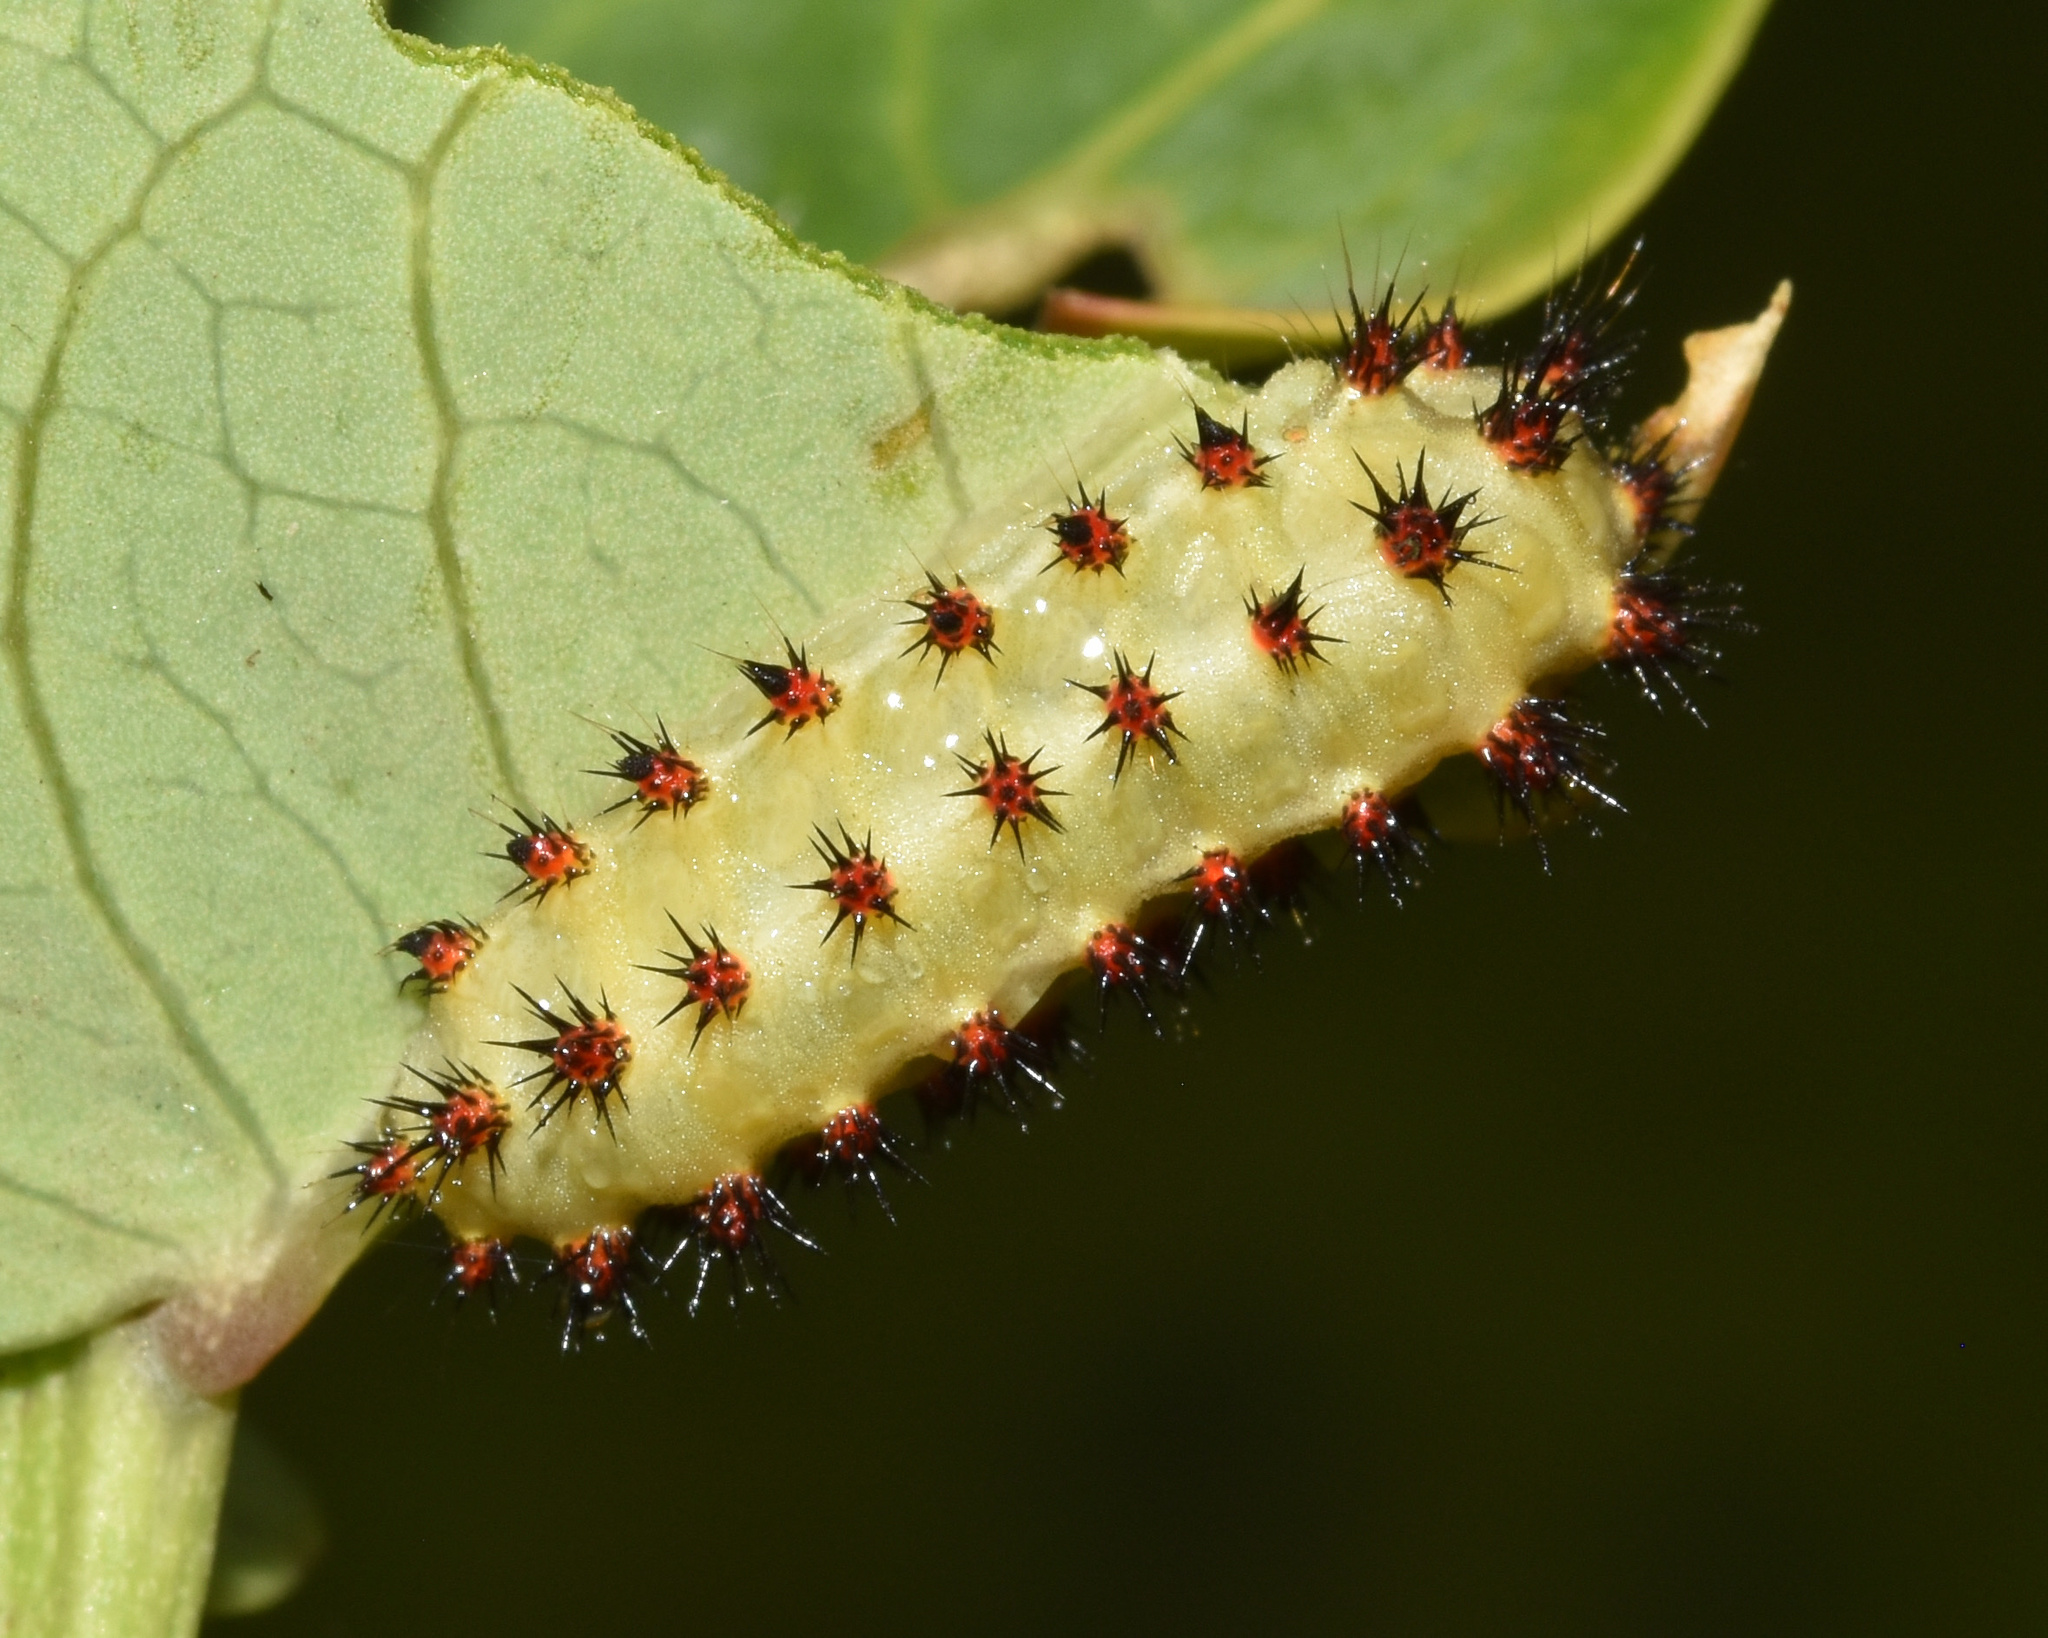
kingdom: Animalia
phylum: Arthropoda
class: Insecta
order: Lepidoptera
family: Limacodidae
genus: Sporetolepis
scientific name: Sporetolepis platti
